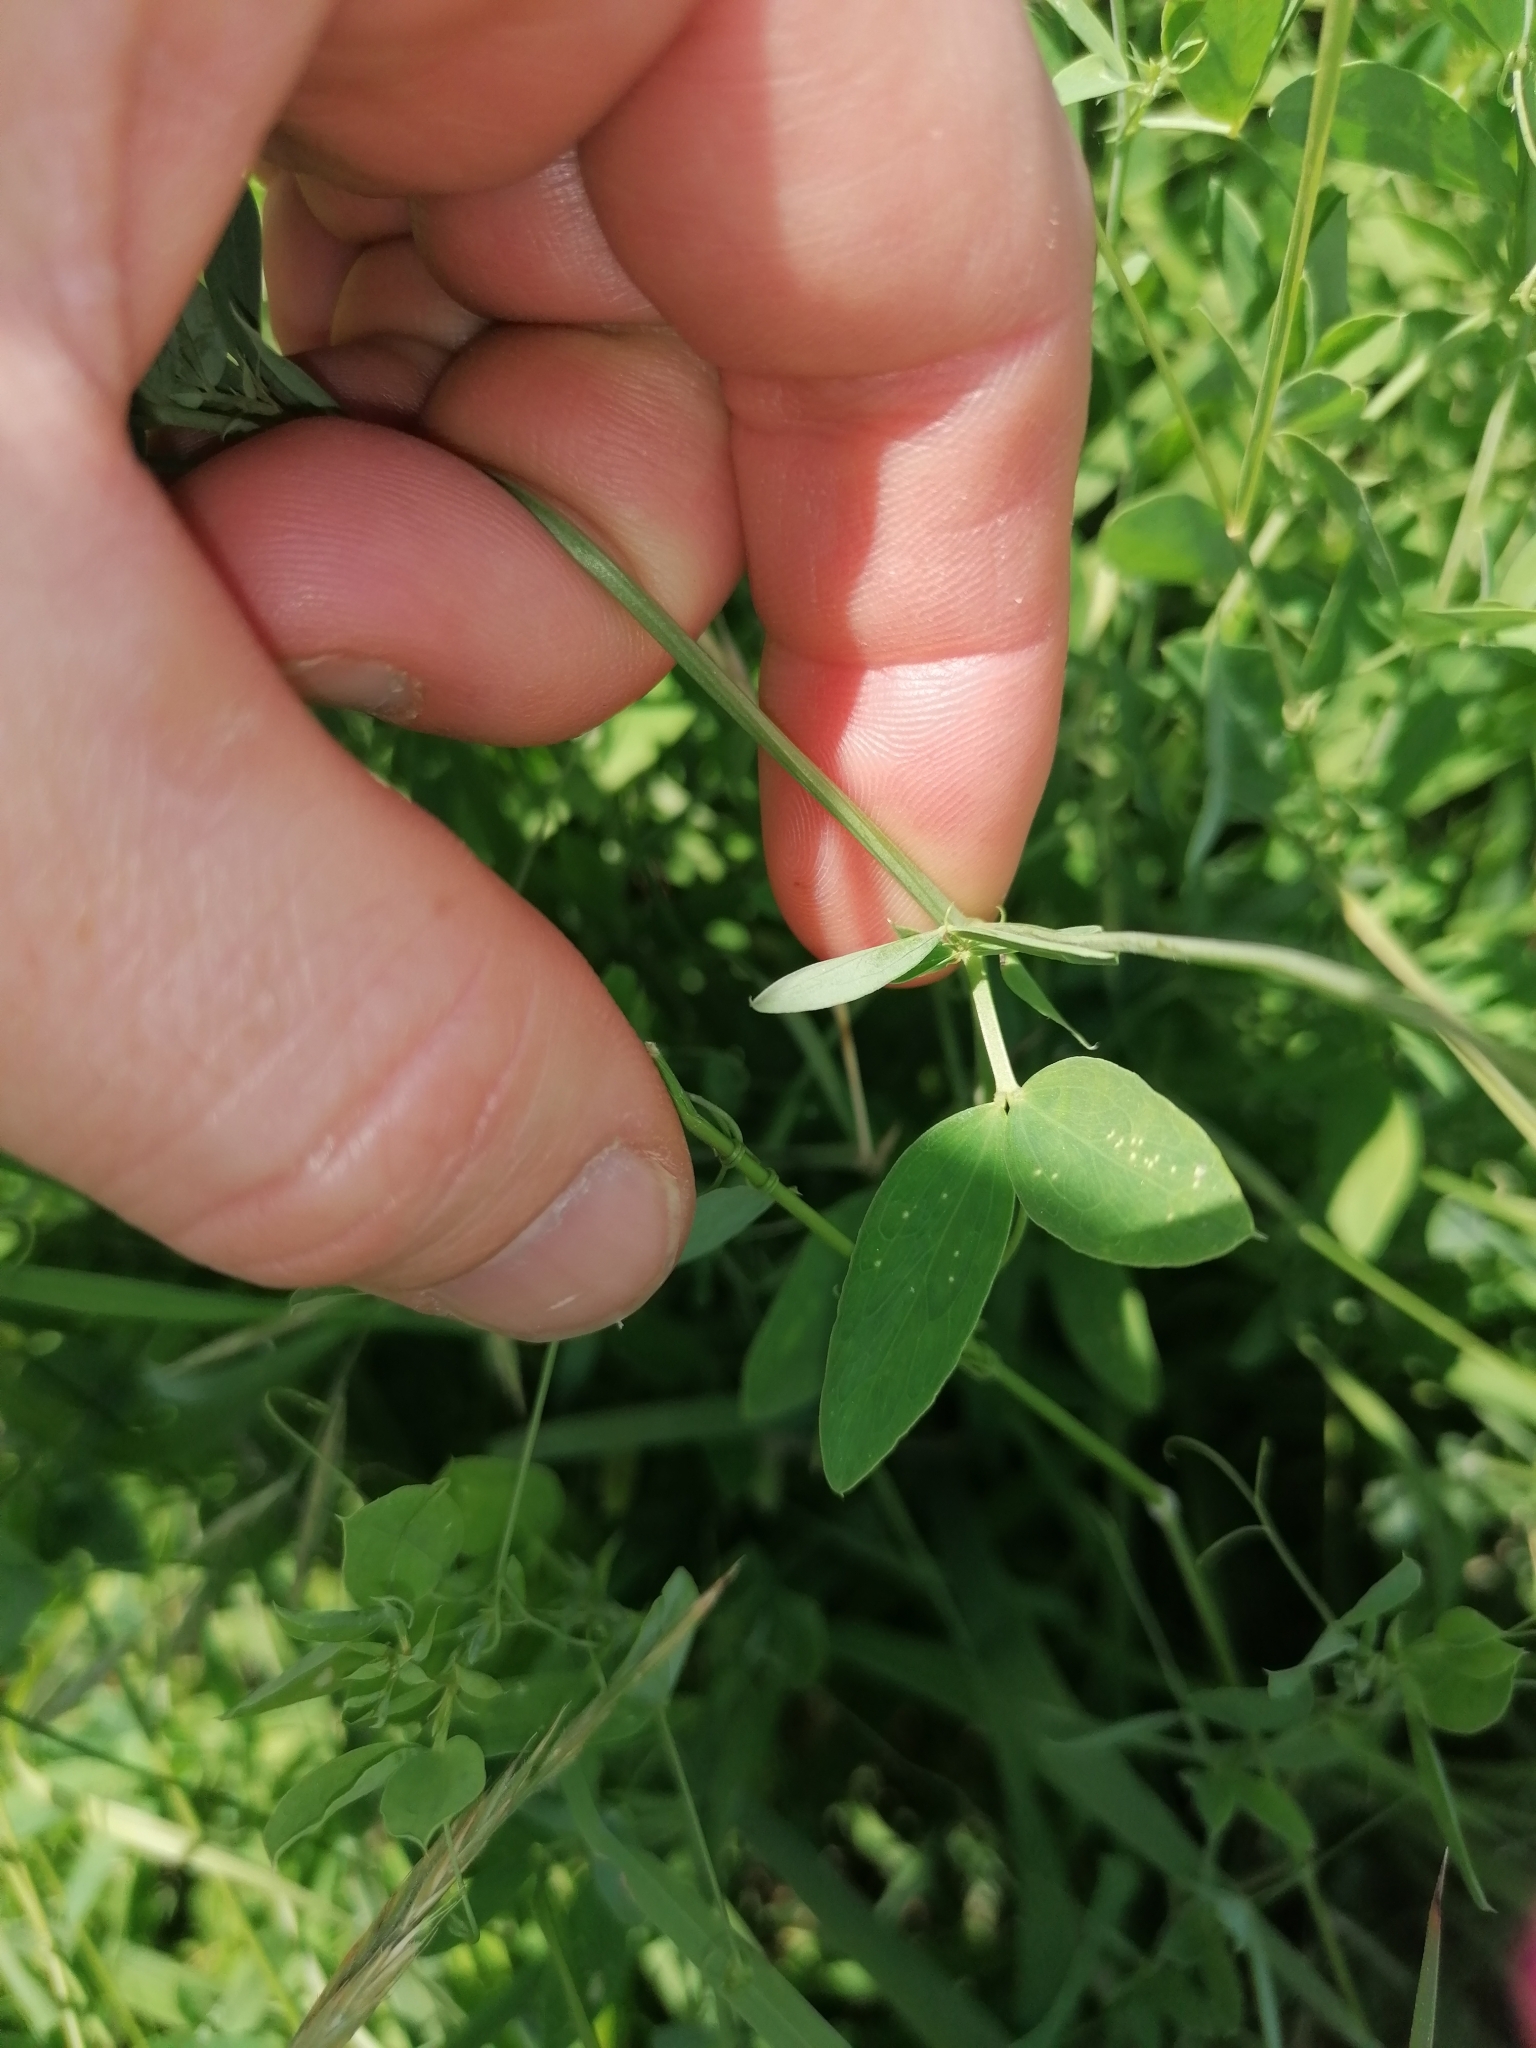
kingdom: Plantae
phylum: Tracheophyta
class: Magnoliopsida
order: Fabales
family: Fabaceae
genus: Lathyrus
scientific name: Lathyrus tuberosus
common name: Tuberous pea
